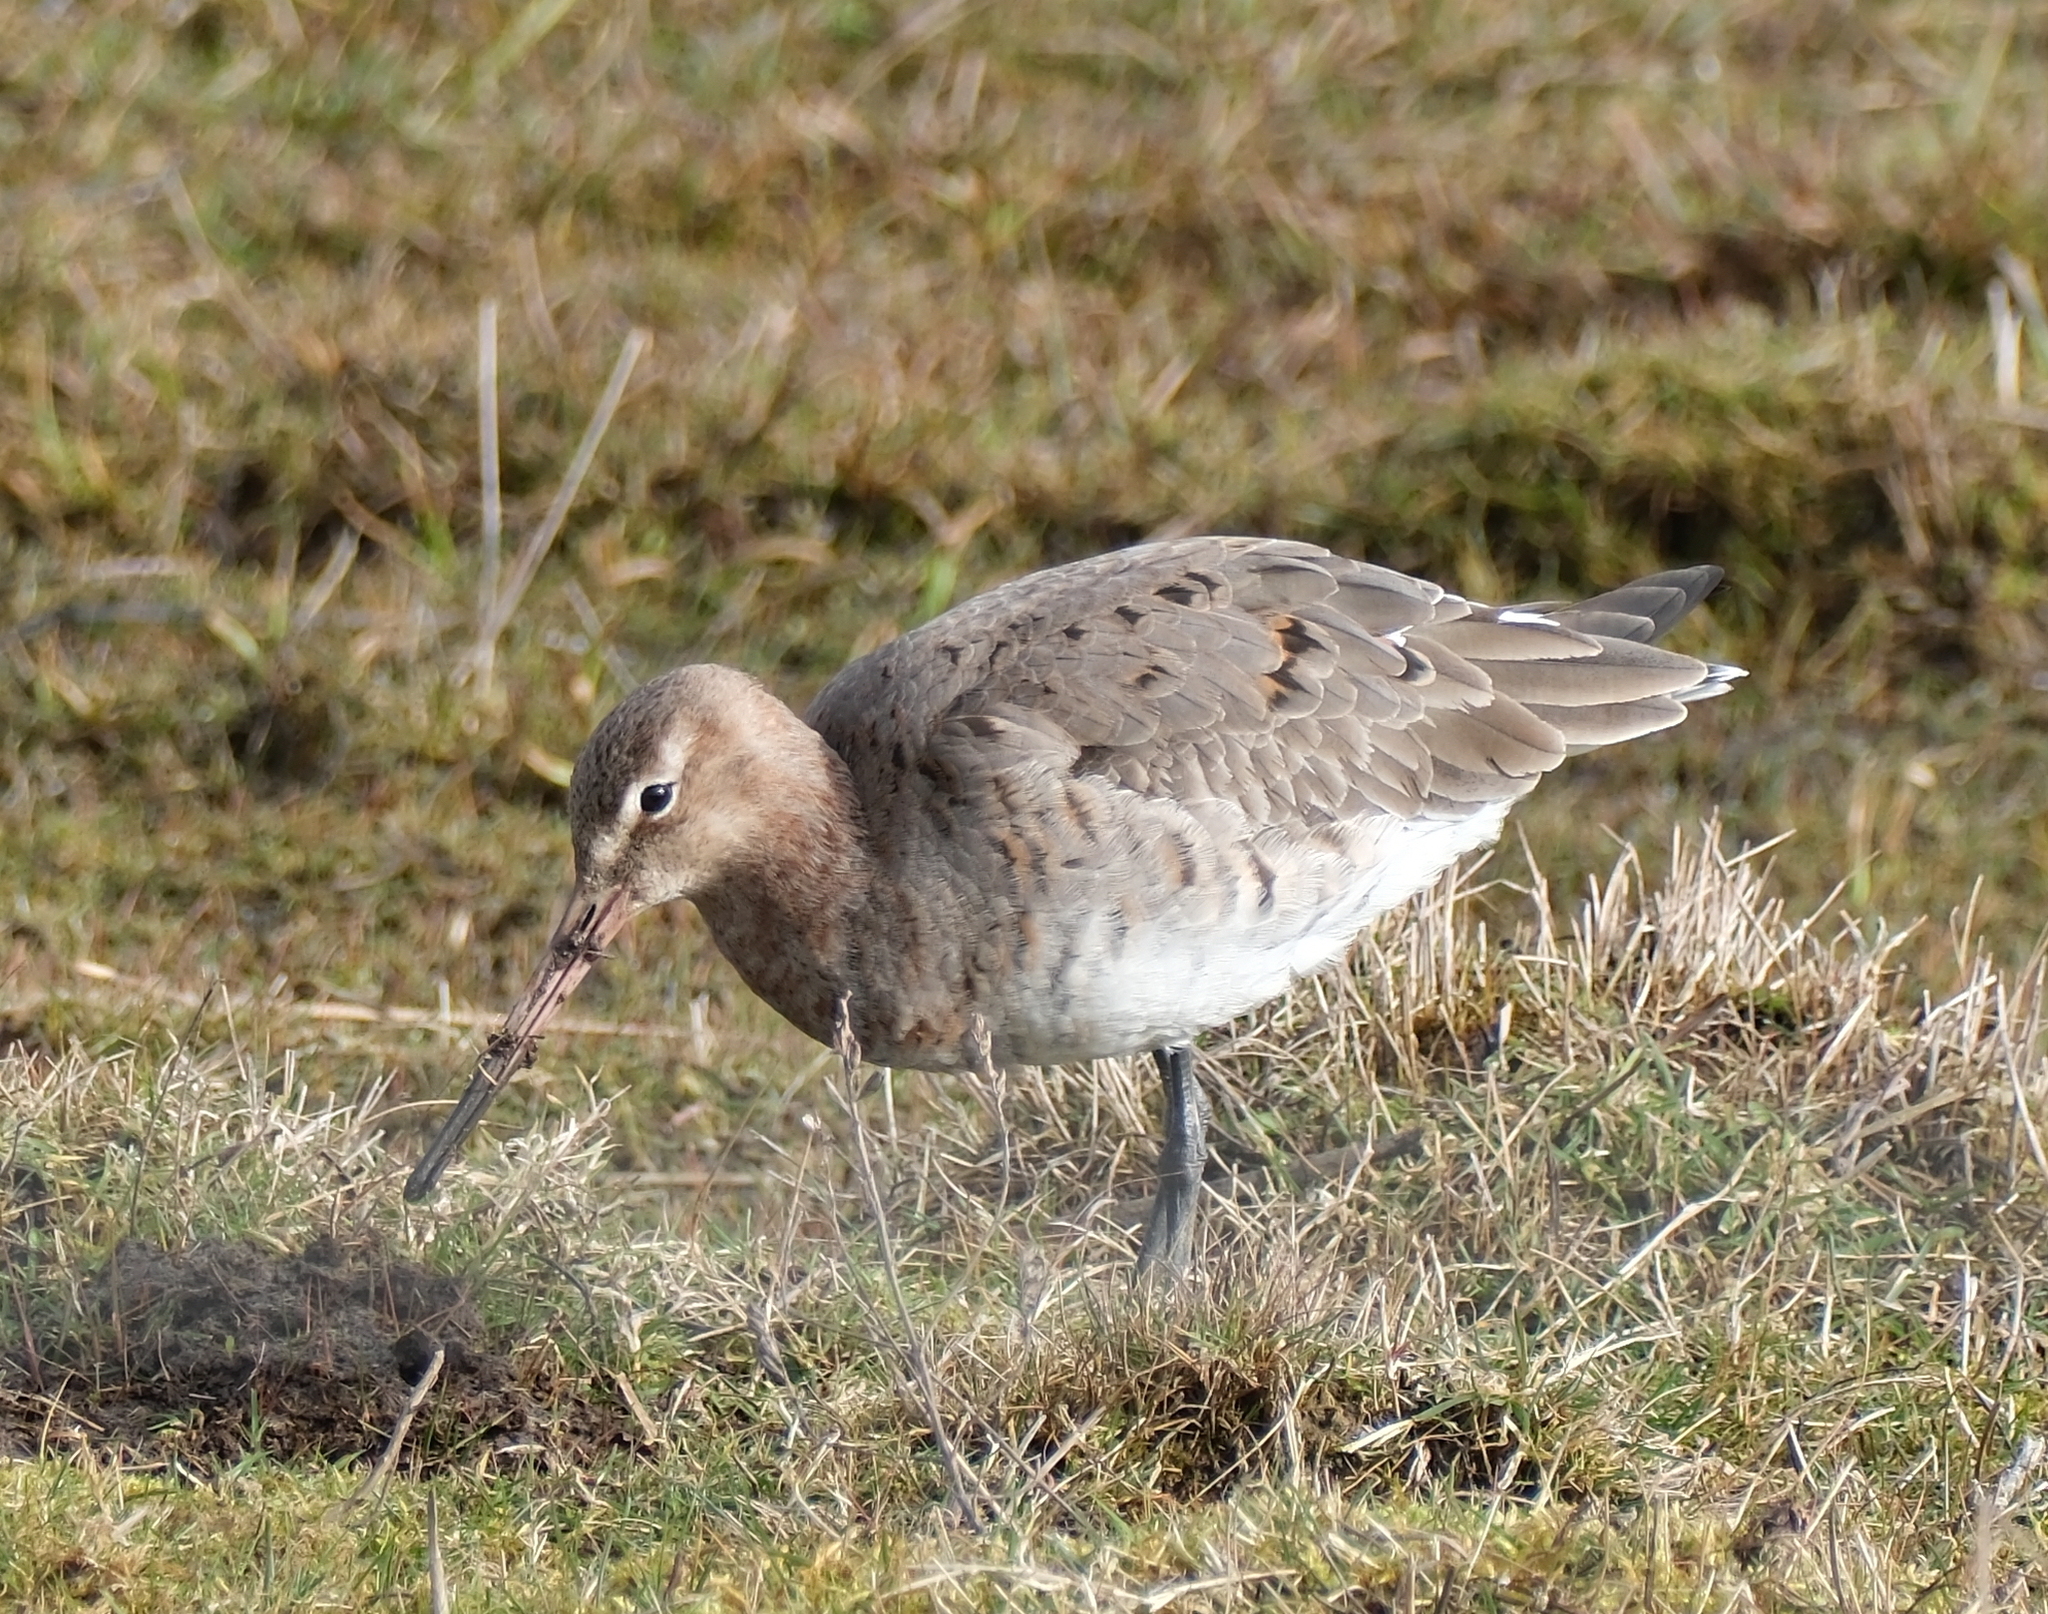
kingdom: Animalia
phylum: Chordata
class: Aves
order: Charadriiformes
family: Scolopacidae
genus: Limosa
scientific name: Limosa limosa
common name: Black-tailed godwit
